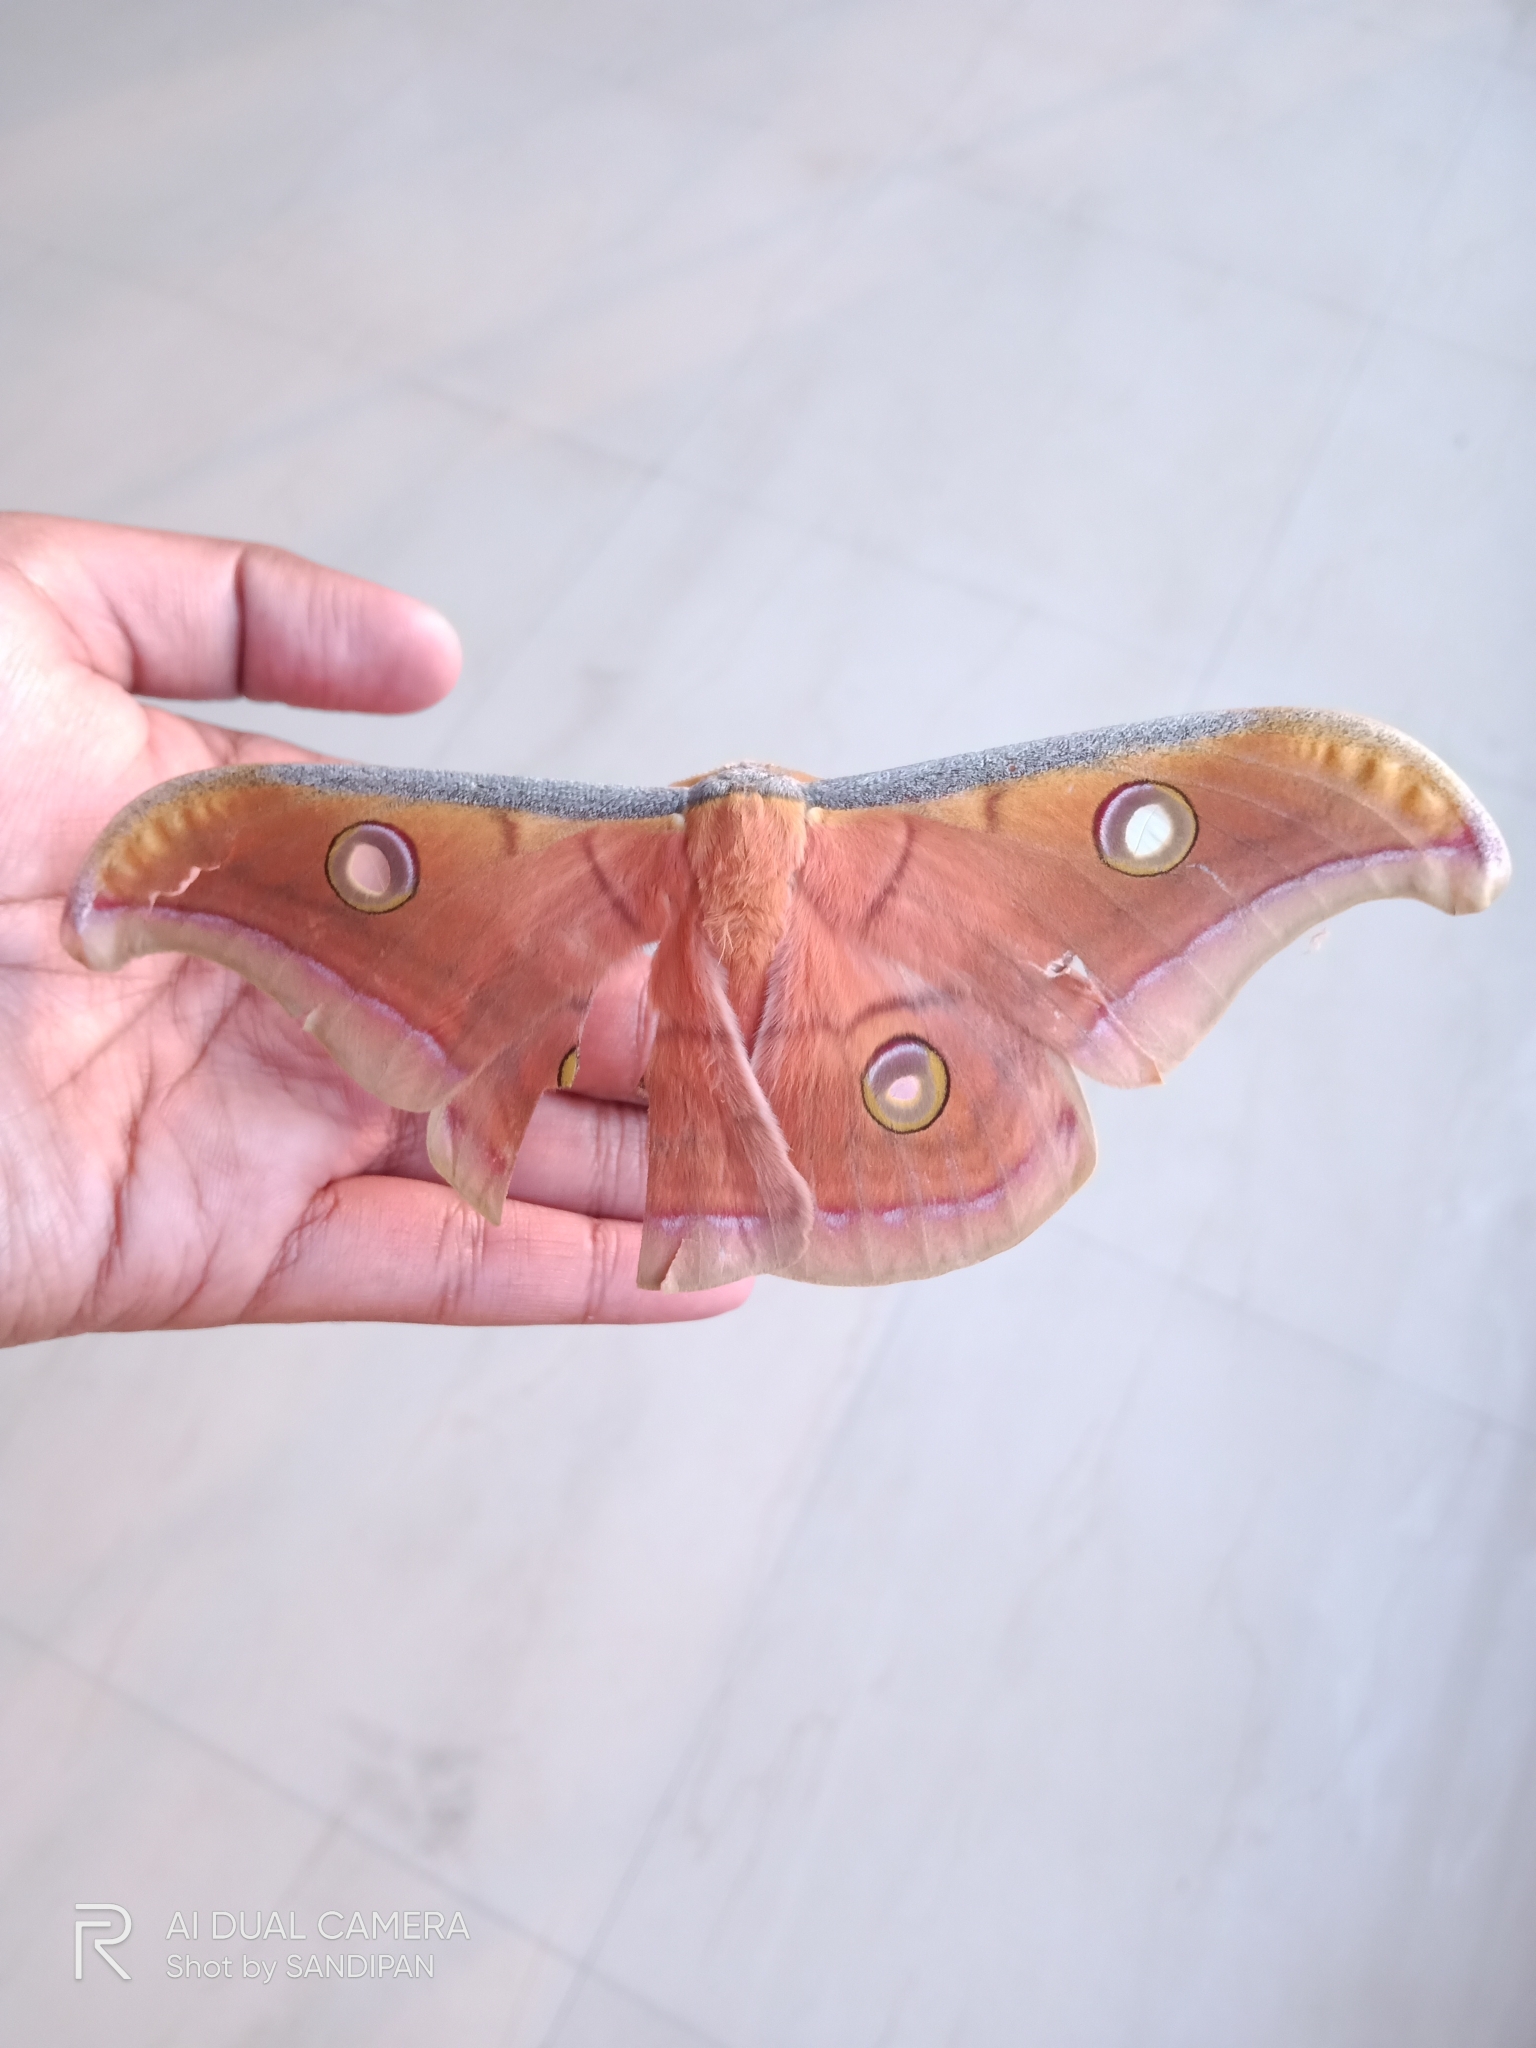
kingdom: Animalia
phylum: Arthropoda
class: Insecta
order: Lepidoptera
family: Saturniidae
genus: Antheraea
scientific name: Antheraea paphia
